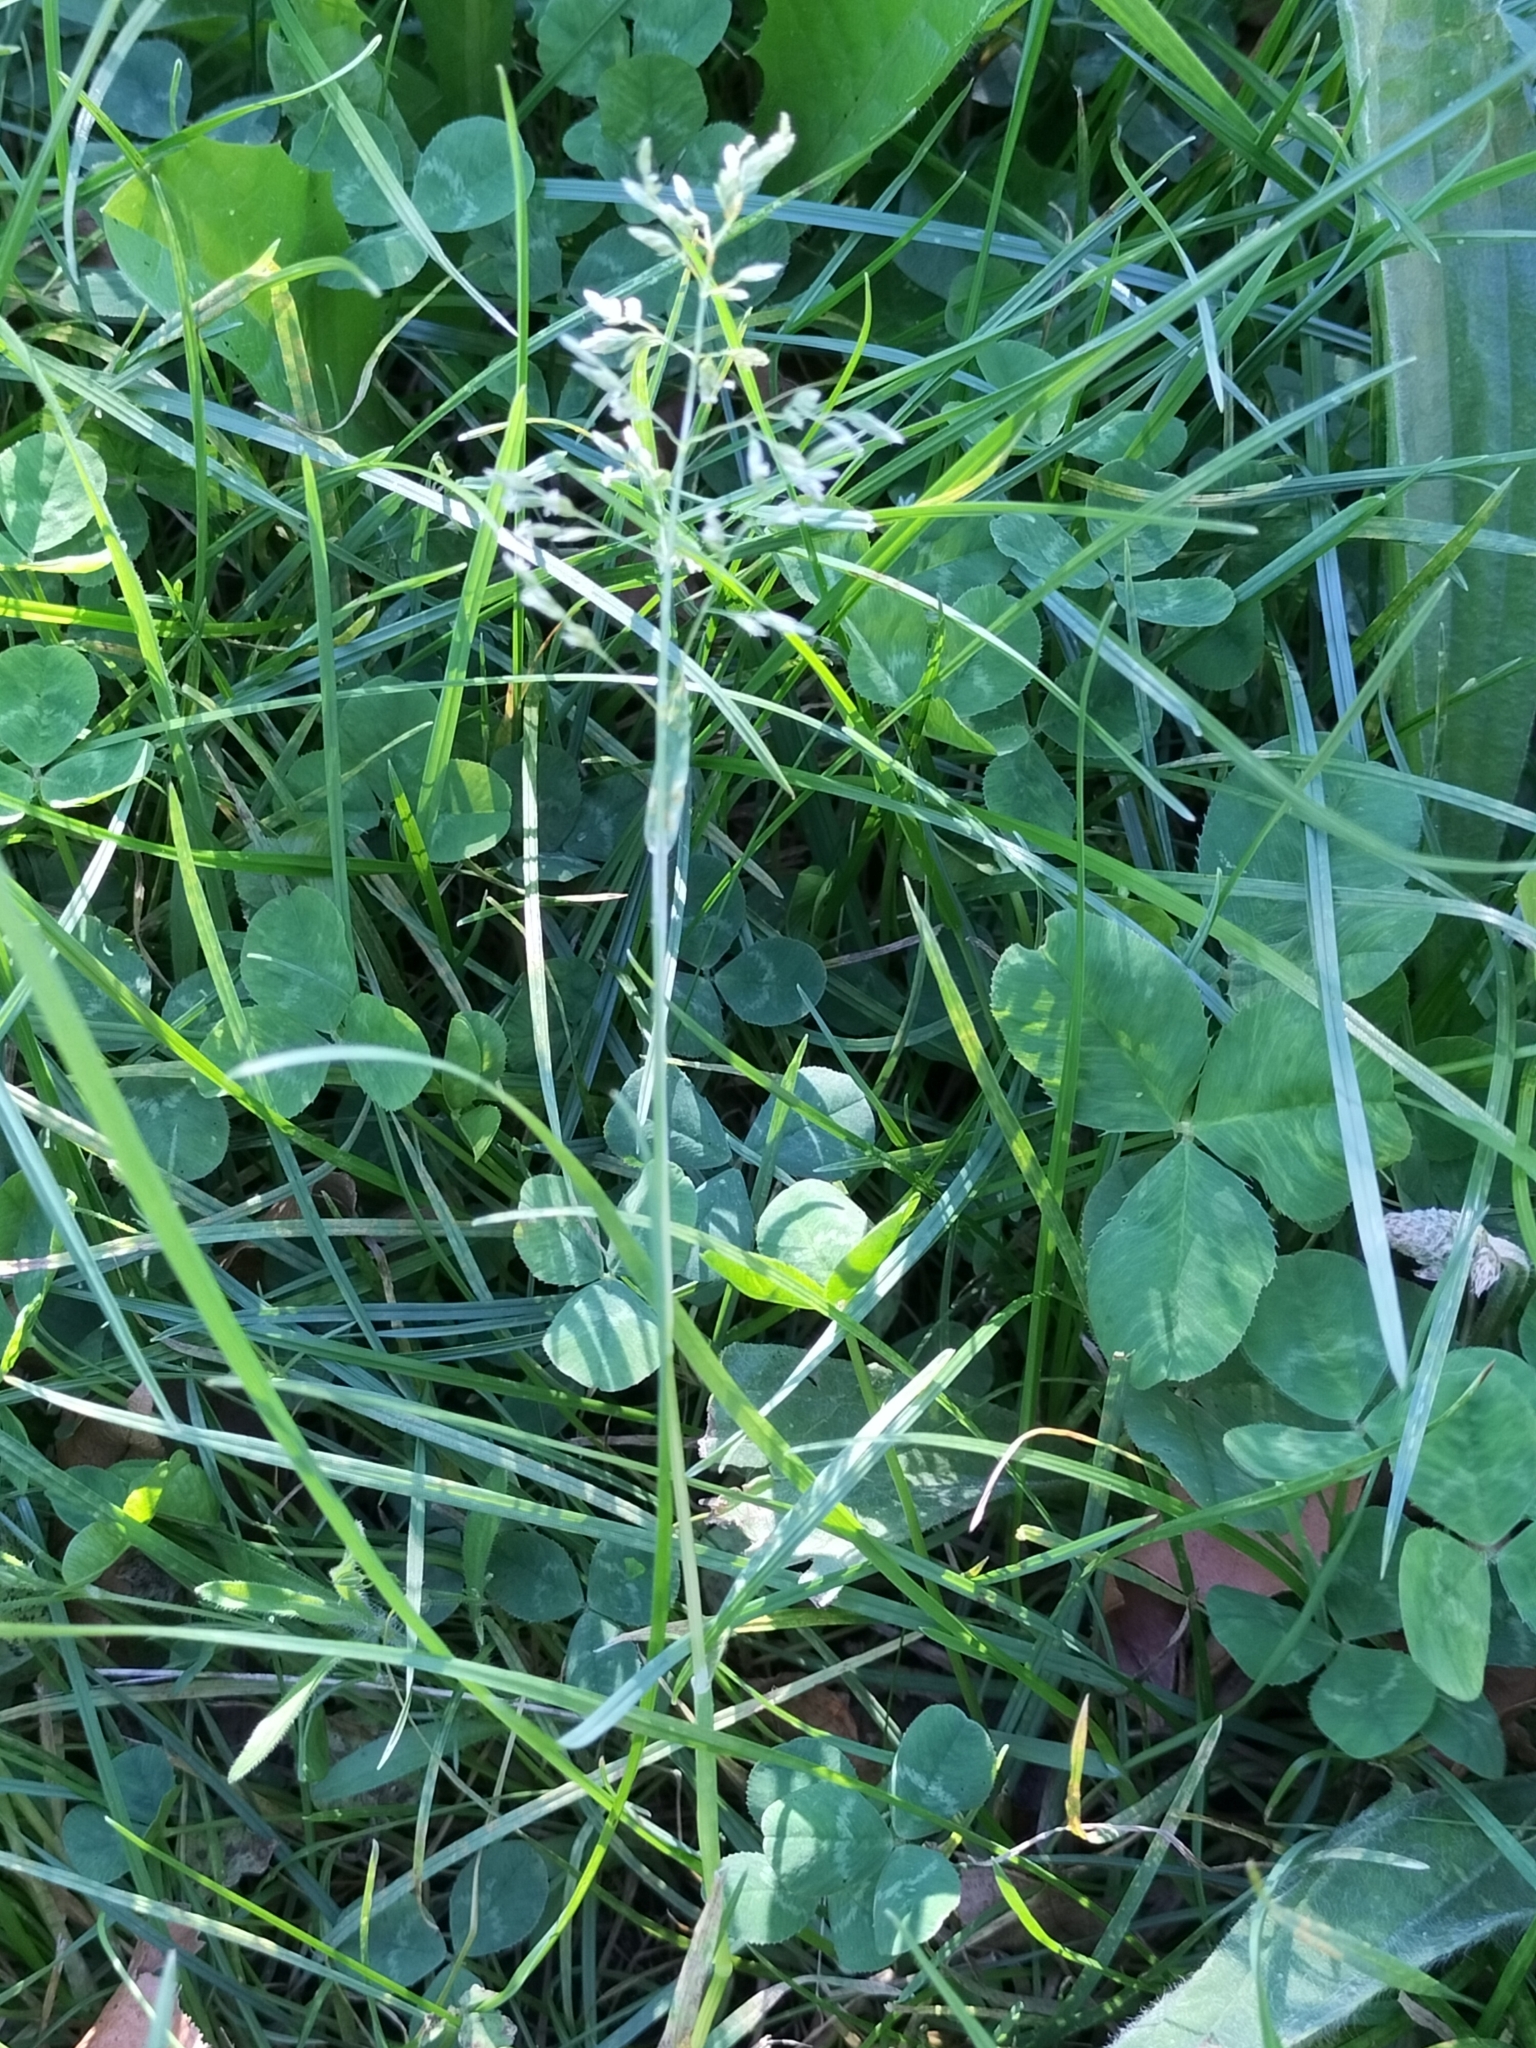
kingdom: Plantae
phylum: Tracheophyta
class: Liliopsida
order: Poales
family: Poaceae
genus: Poa
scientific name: Poa annua
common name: Annual bluegrass
